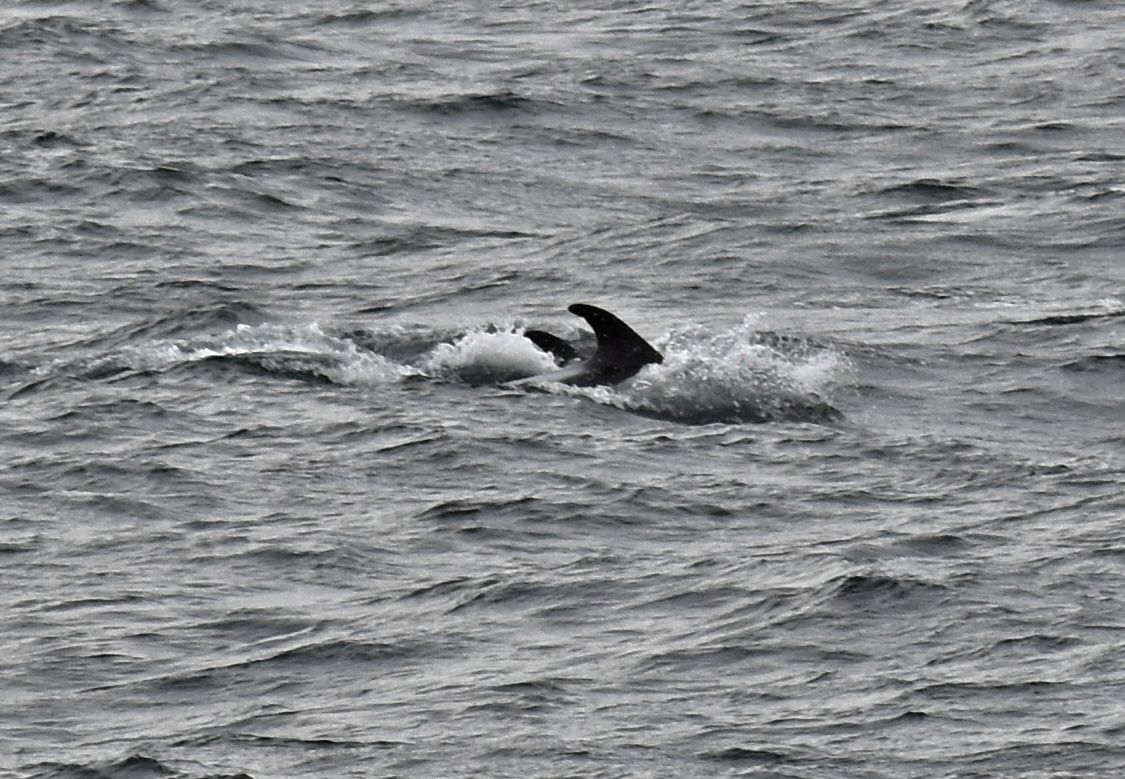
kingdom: Animalia
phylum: Chordata
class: Mammalia
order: Cetacea
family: Balaenopteridae
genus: Balaenoptera
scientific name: Balaenoptera acutorostrata
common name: Common minke whale
